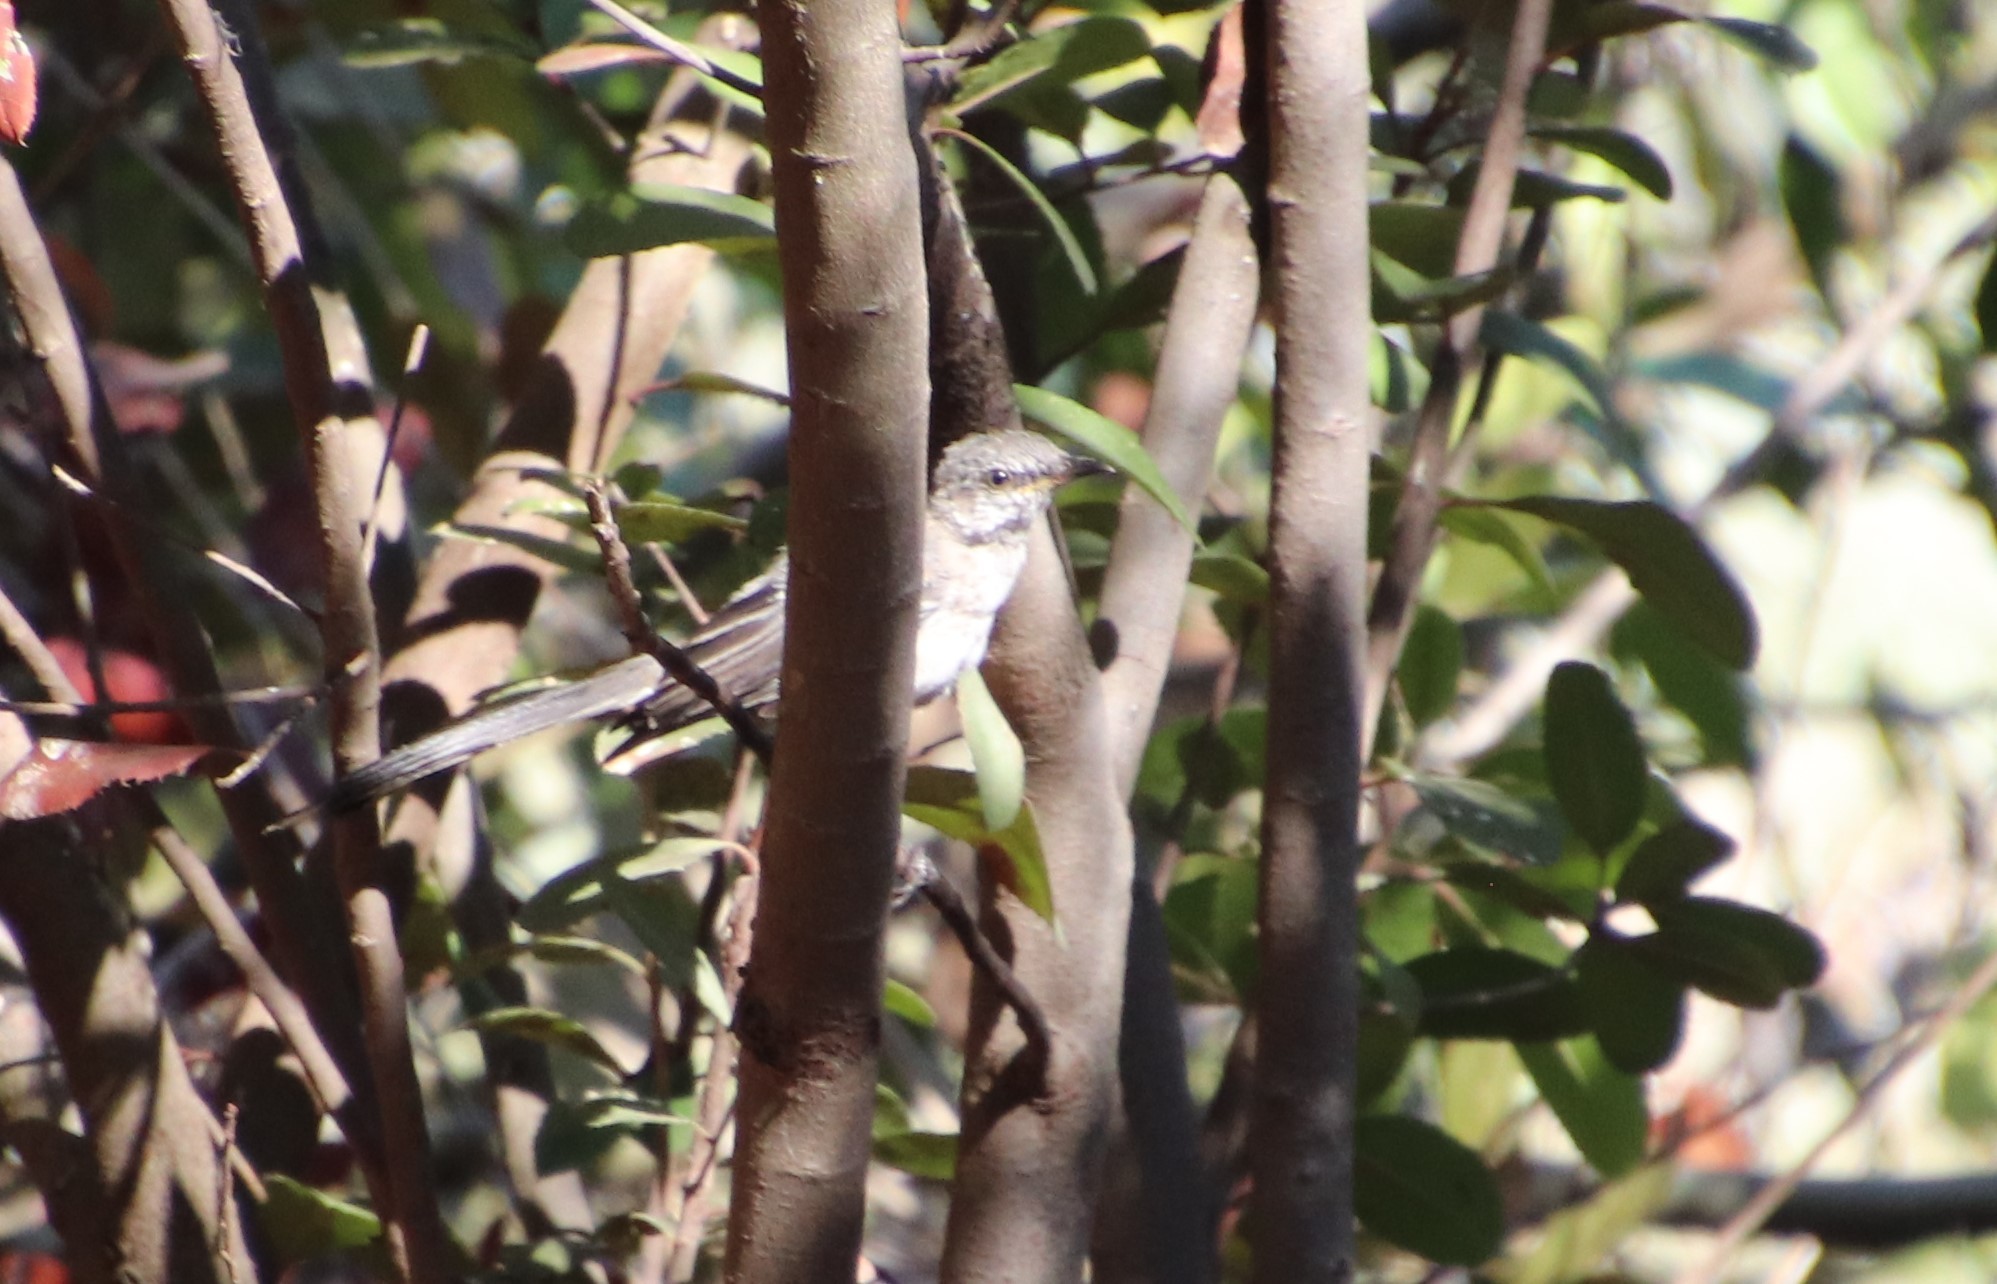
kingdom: Animalia
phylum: Chordata
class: Aves
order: Passeriformes
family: Mimidae
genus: Mimus
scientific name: Mimus polyglottos
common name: Northern mockingbird
